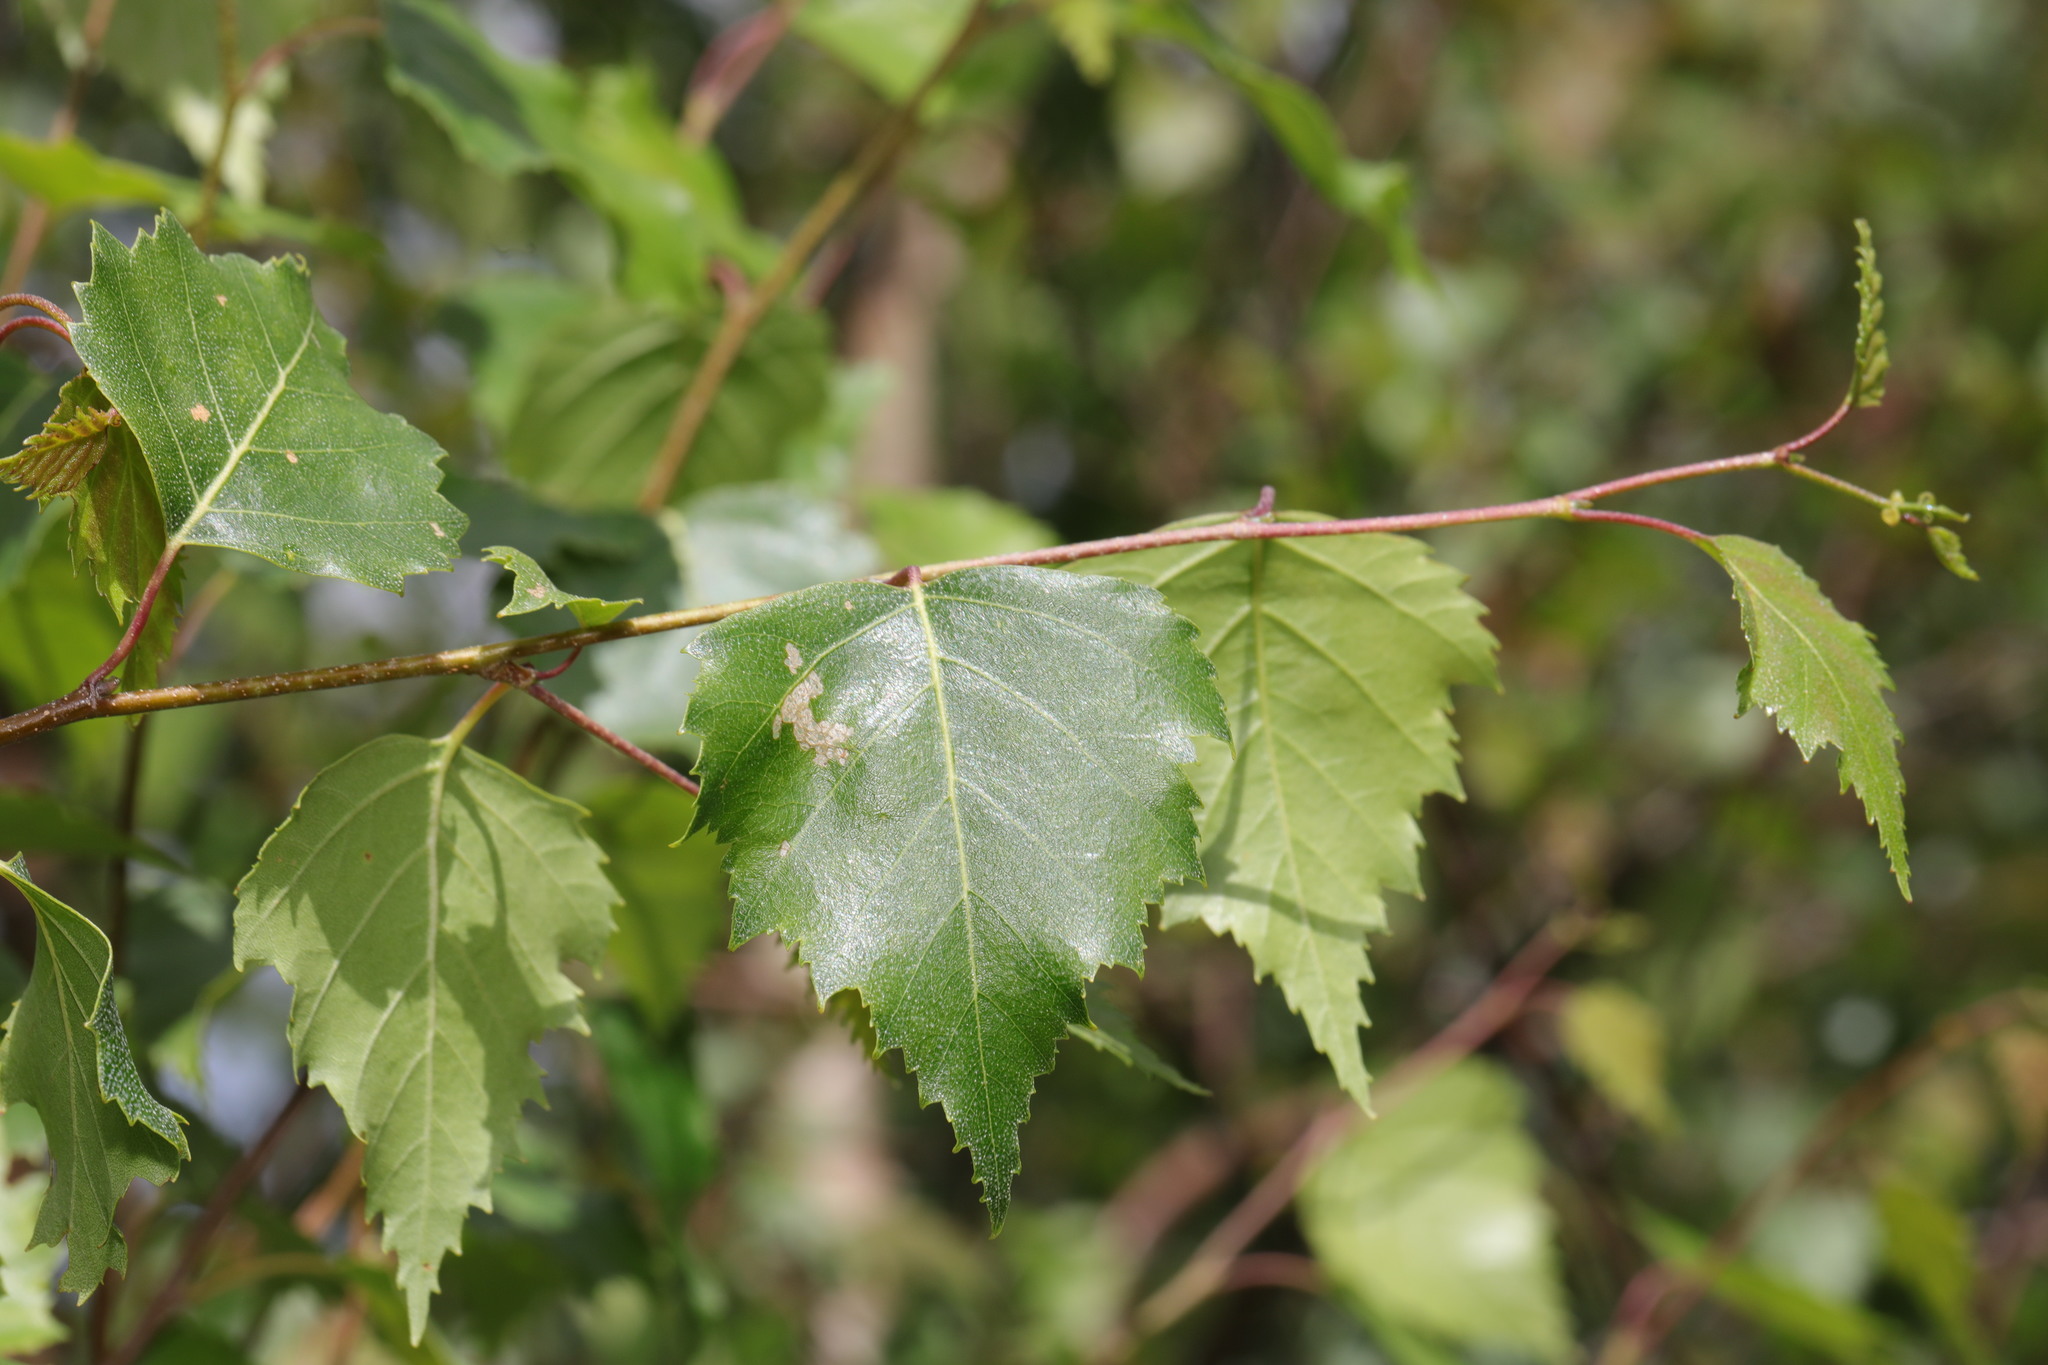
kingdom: Plantae
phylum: Tracheophyta
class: Magnoliopsida
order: Fagales
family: Betulaceae
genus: Betula
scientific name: Betula pendula
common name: Silver birch
